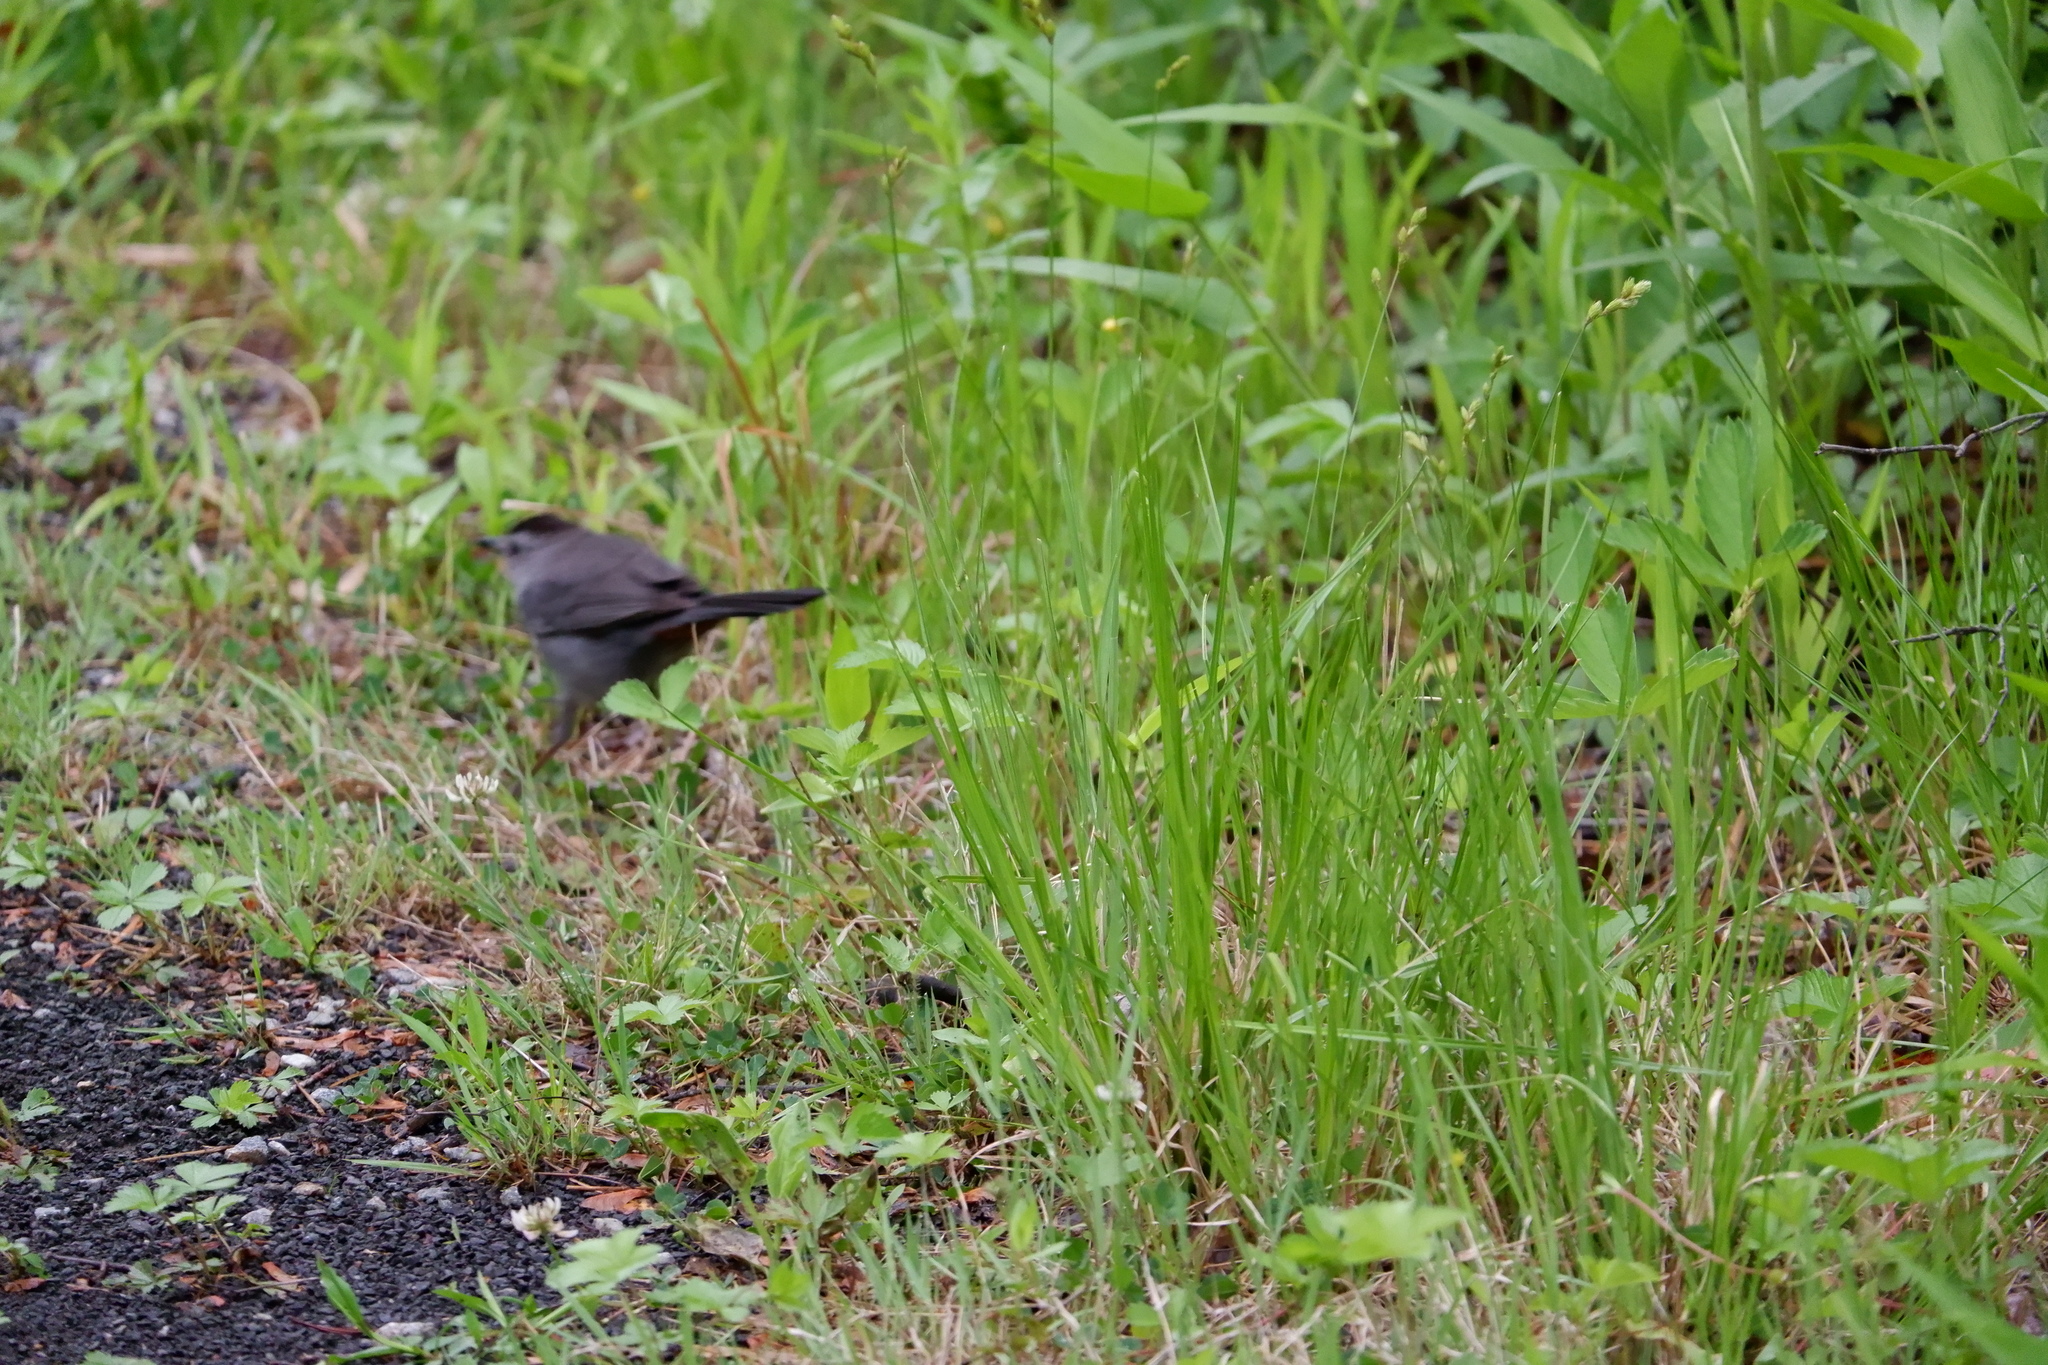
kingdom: Animalia
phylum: Chordata
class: Aves
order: Passeriformes
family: Mimidae
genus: Dumetella
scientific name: Dumetella carolinensis
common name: Gray catbird
